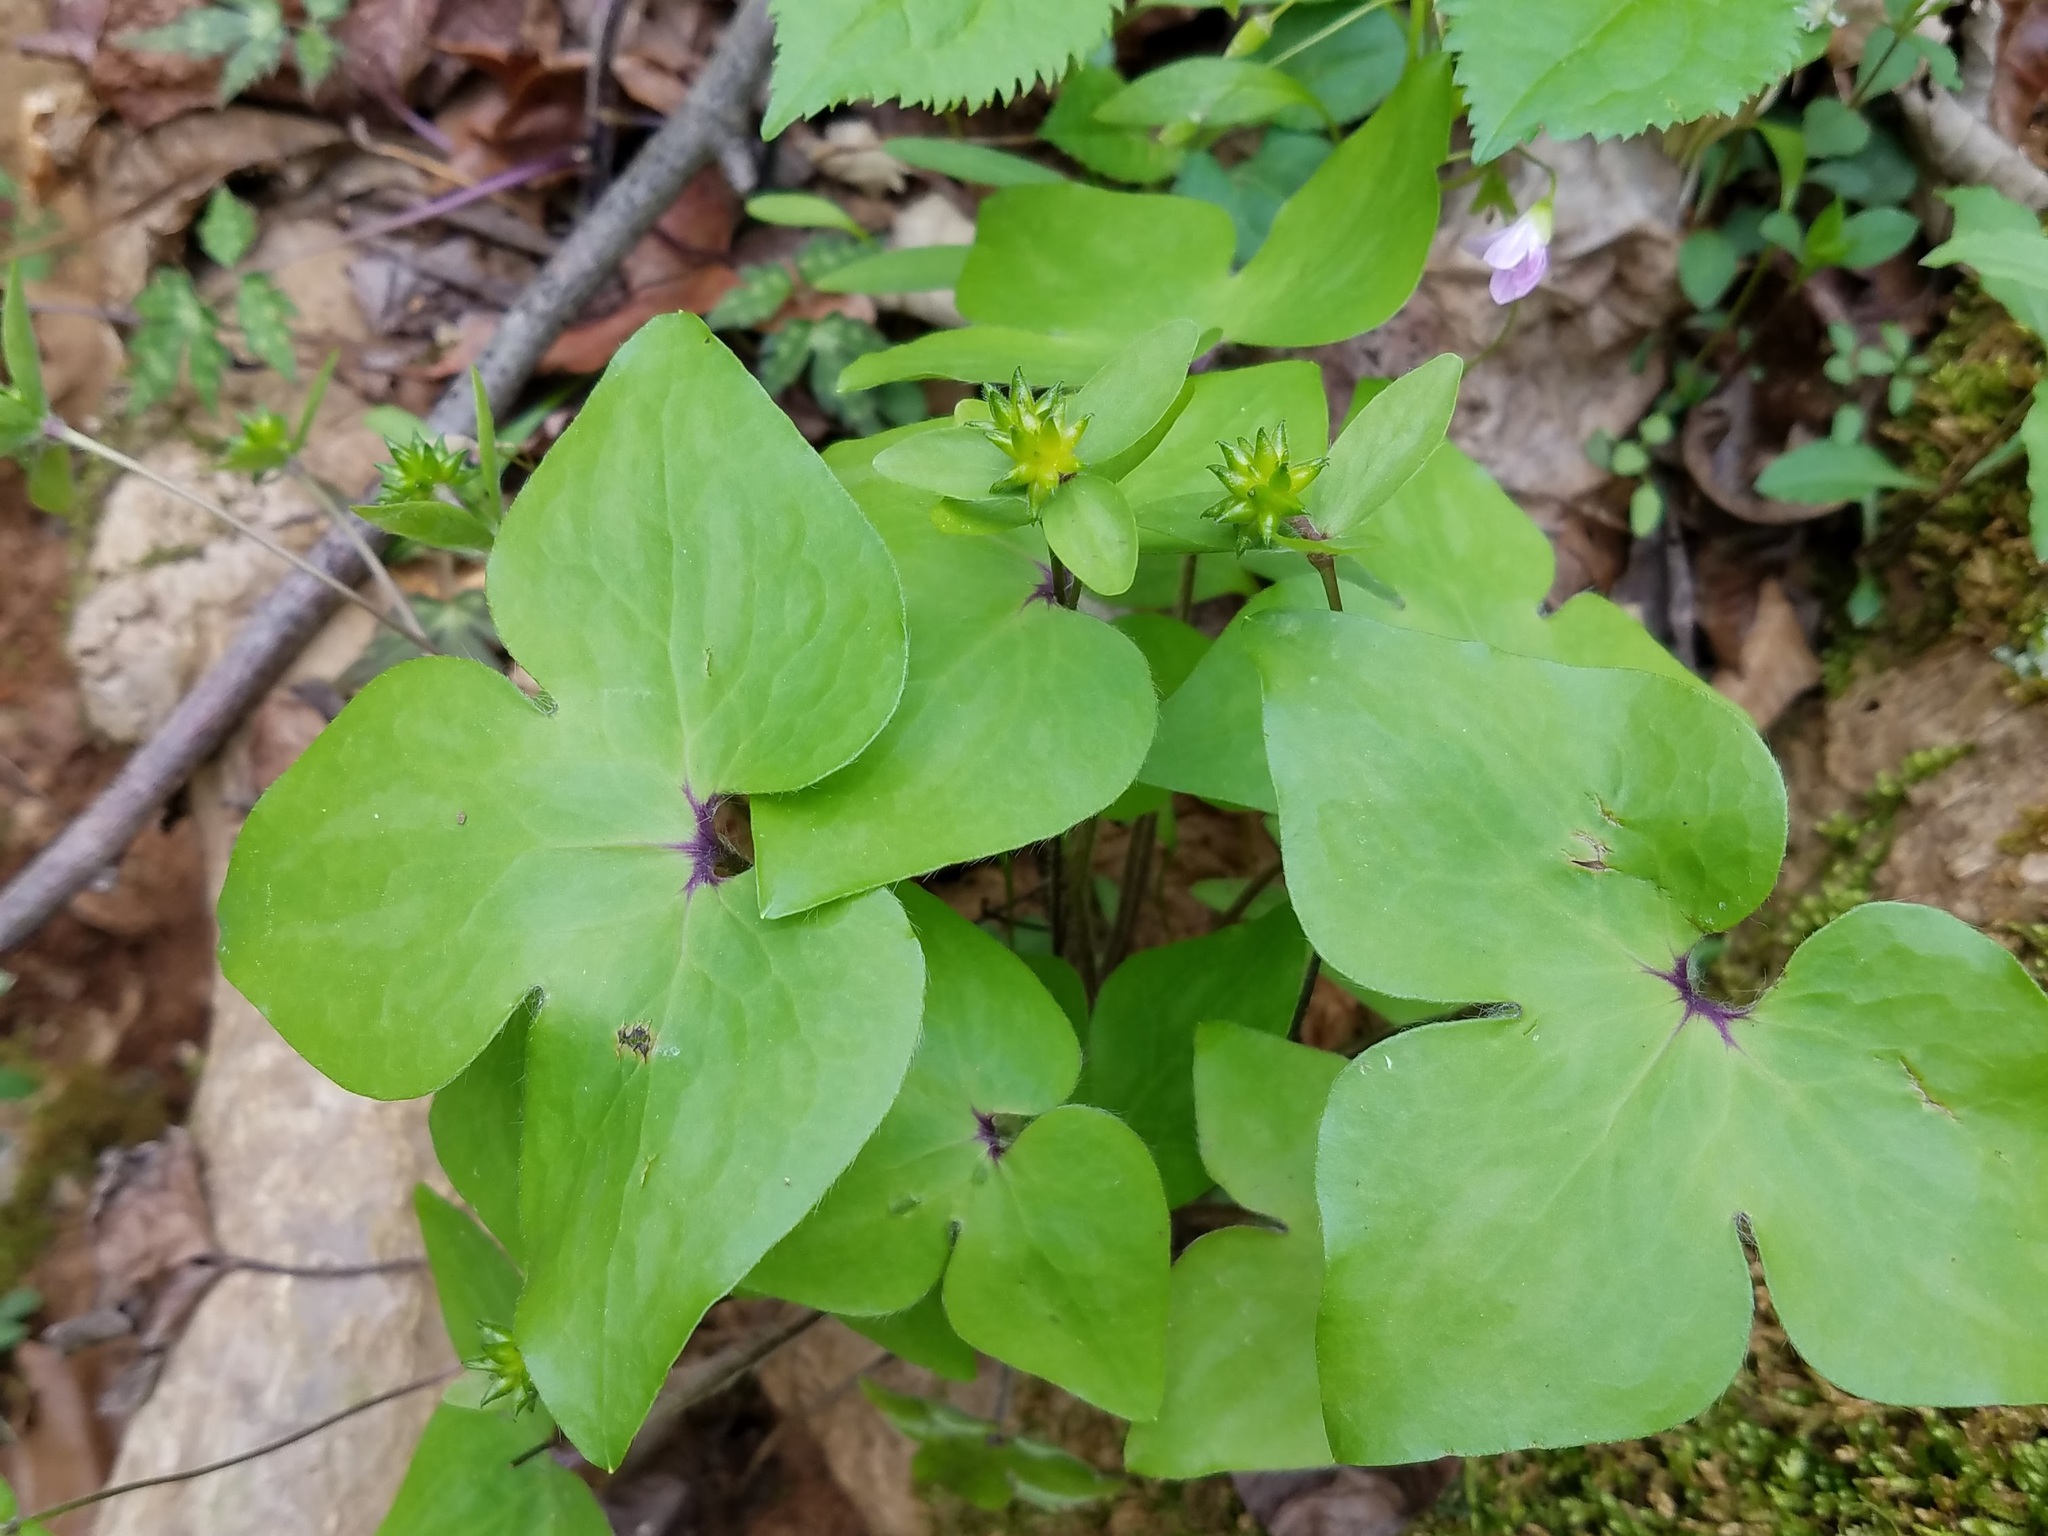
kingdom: Plantae
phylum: Tracheophyta
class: Magnoliopsida
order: Ranunculales
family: Ranunculaceae
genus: Hepatica
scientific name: Hepatica acutiloba
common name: Sharp-lobed hepatica
